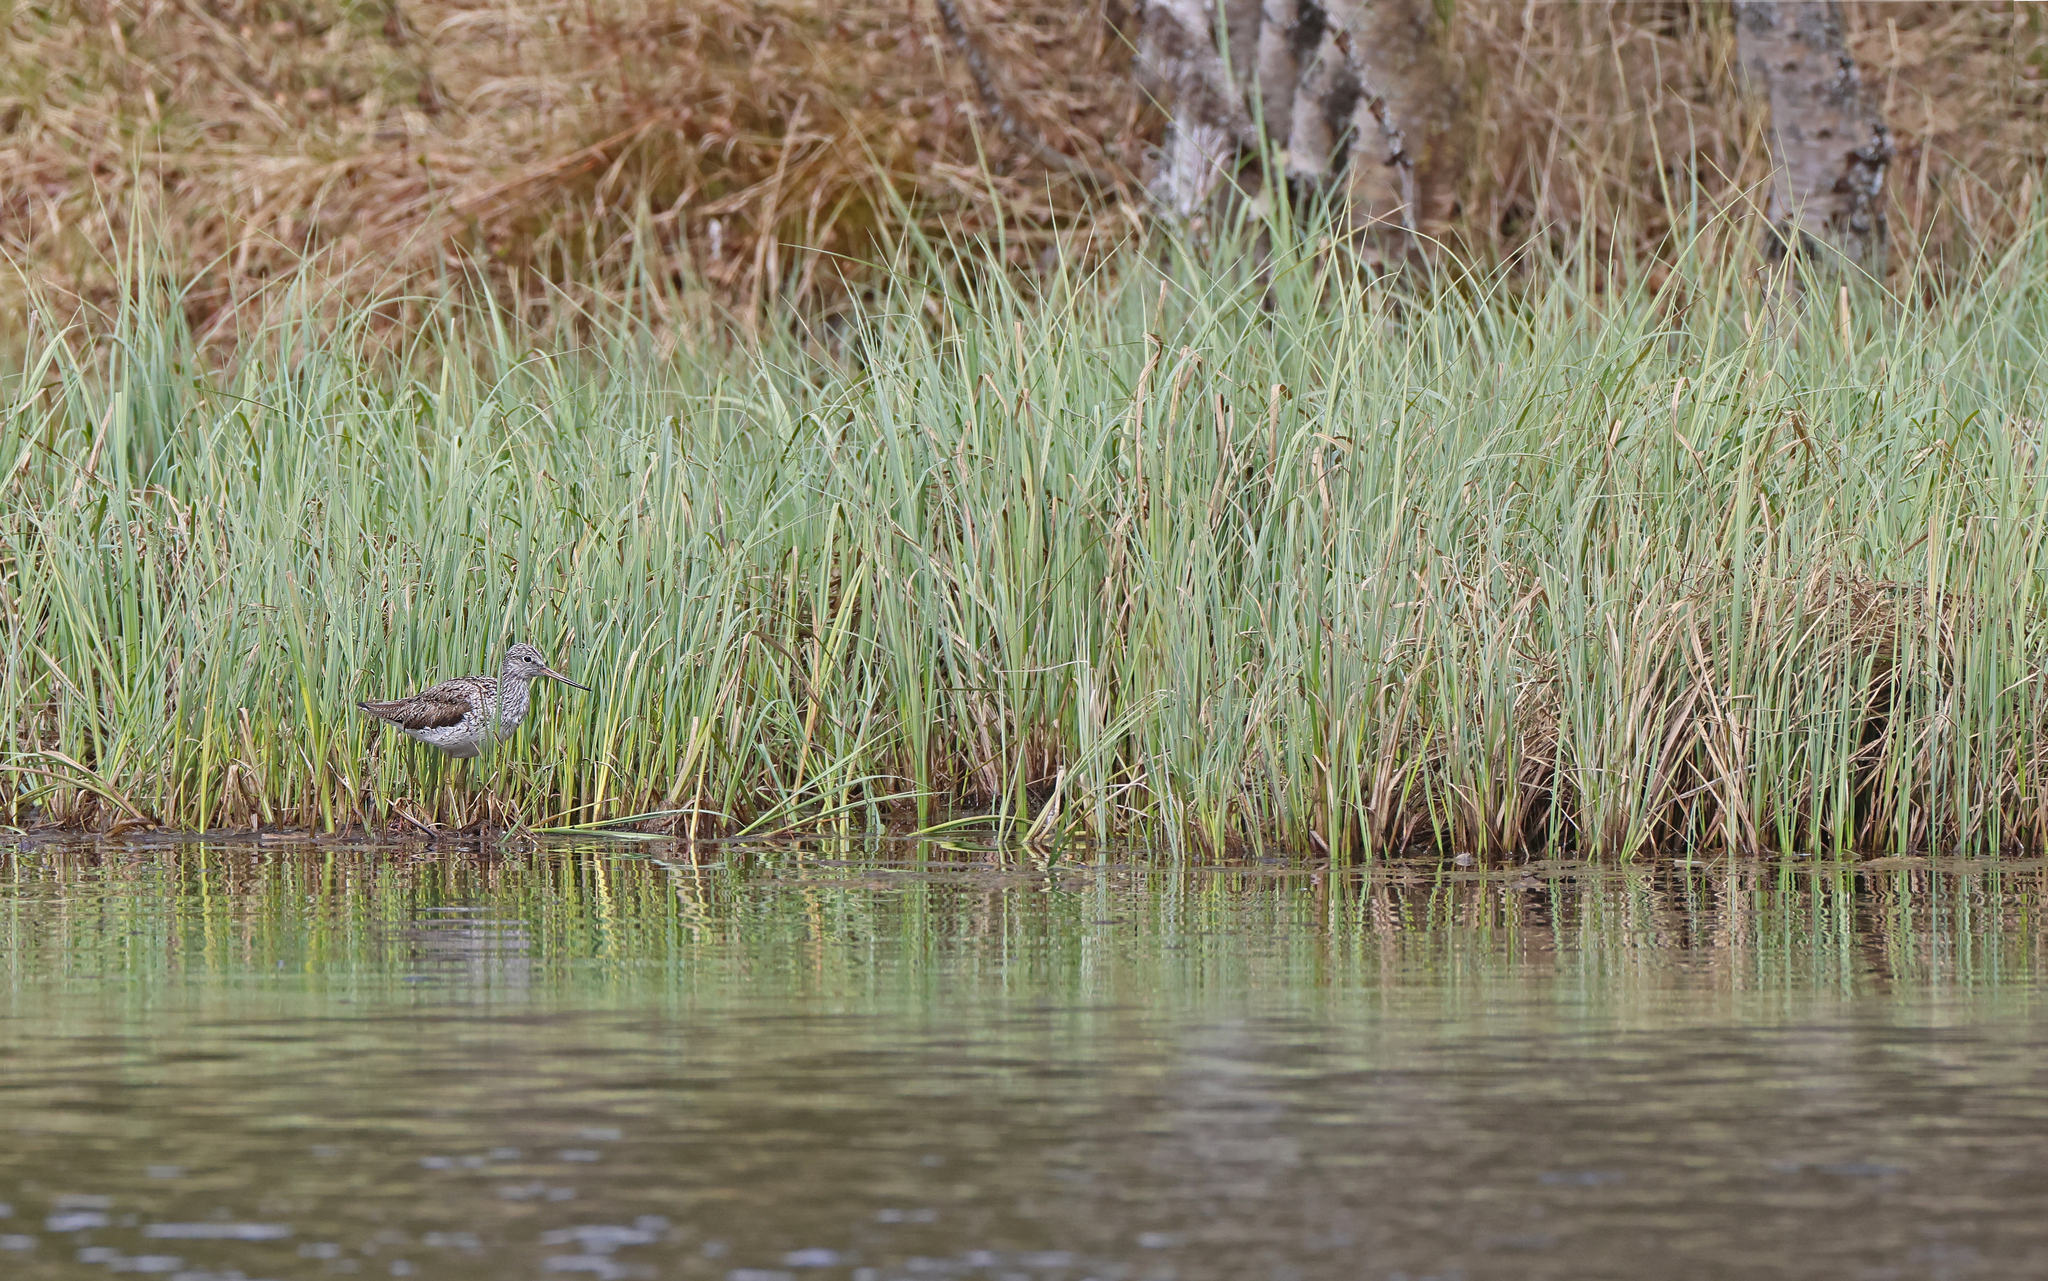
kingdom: Animalia
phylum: Chordata
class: Aves
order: Charadriiformes
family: Scolopacidae
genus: Tringa
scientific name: Tringa nebularia
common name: Common greenshank
